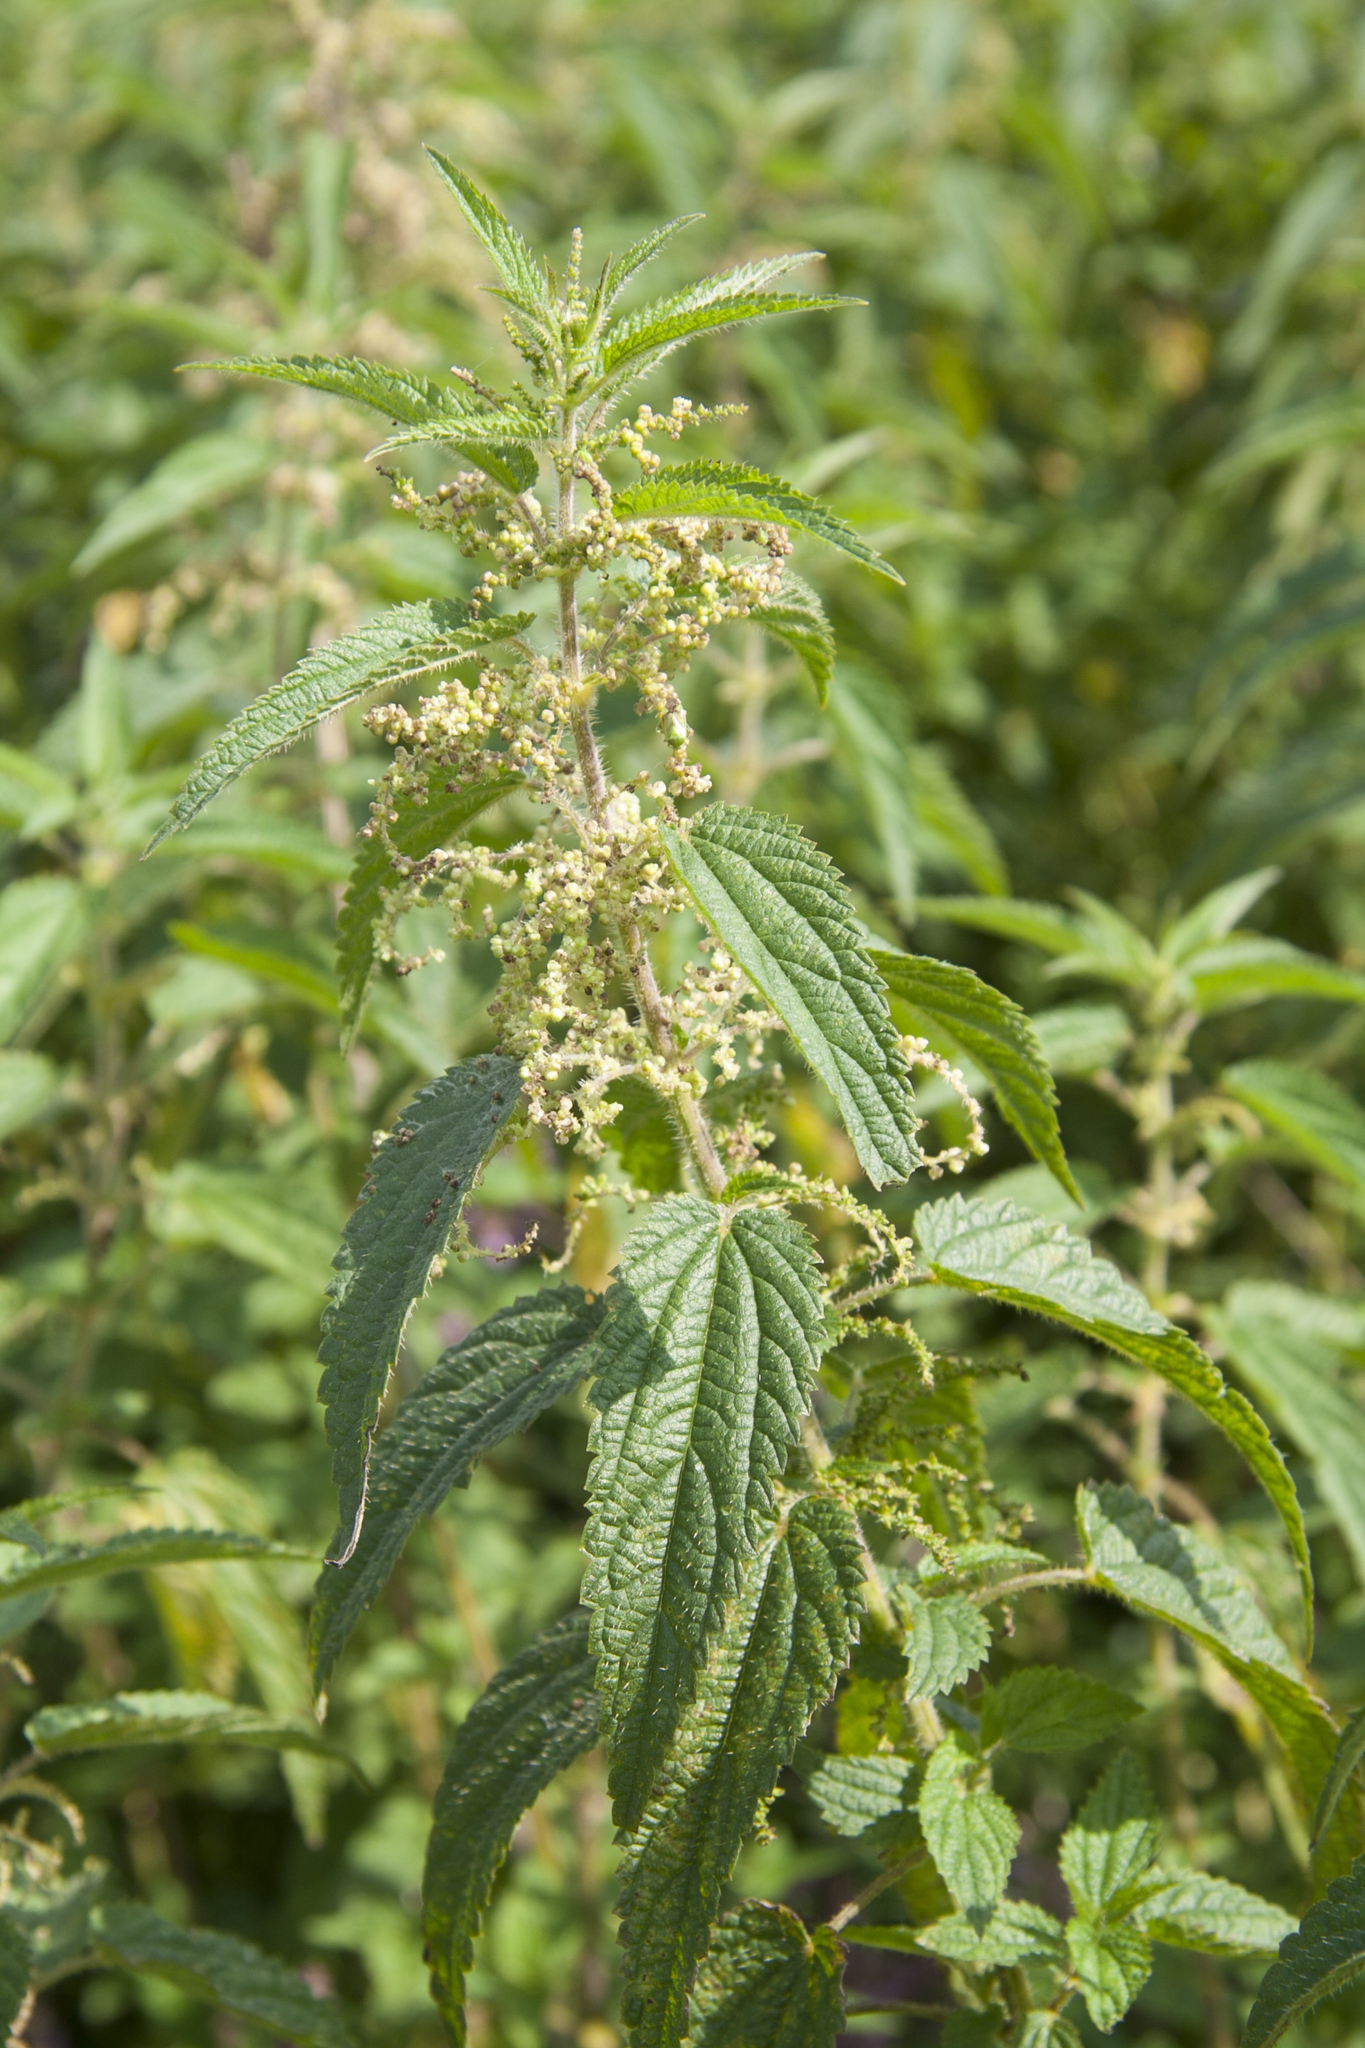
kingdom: Plantae
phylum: Tracheophyta
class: Magnoliopsida
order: Rosales
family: Urticaceae
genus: Urtica
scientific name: Urtica dioica
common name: Common nettle
